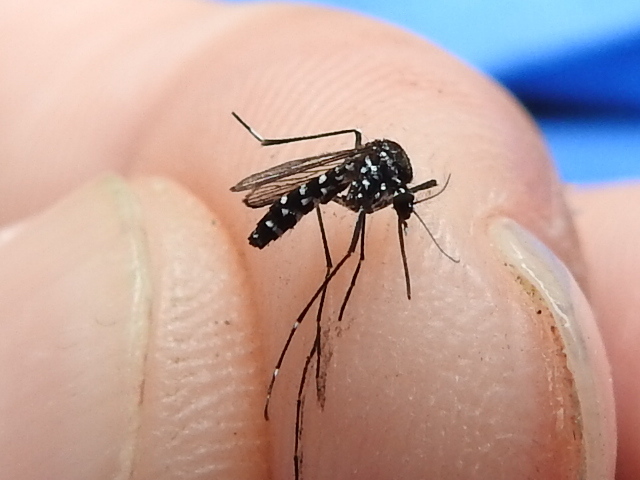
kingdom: Animalia
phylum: Arthropoda
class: Insecta
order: Diptera
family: Culicidae
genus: Aedes
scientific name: Aedes albopictus
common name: Tiger mosquito
